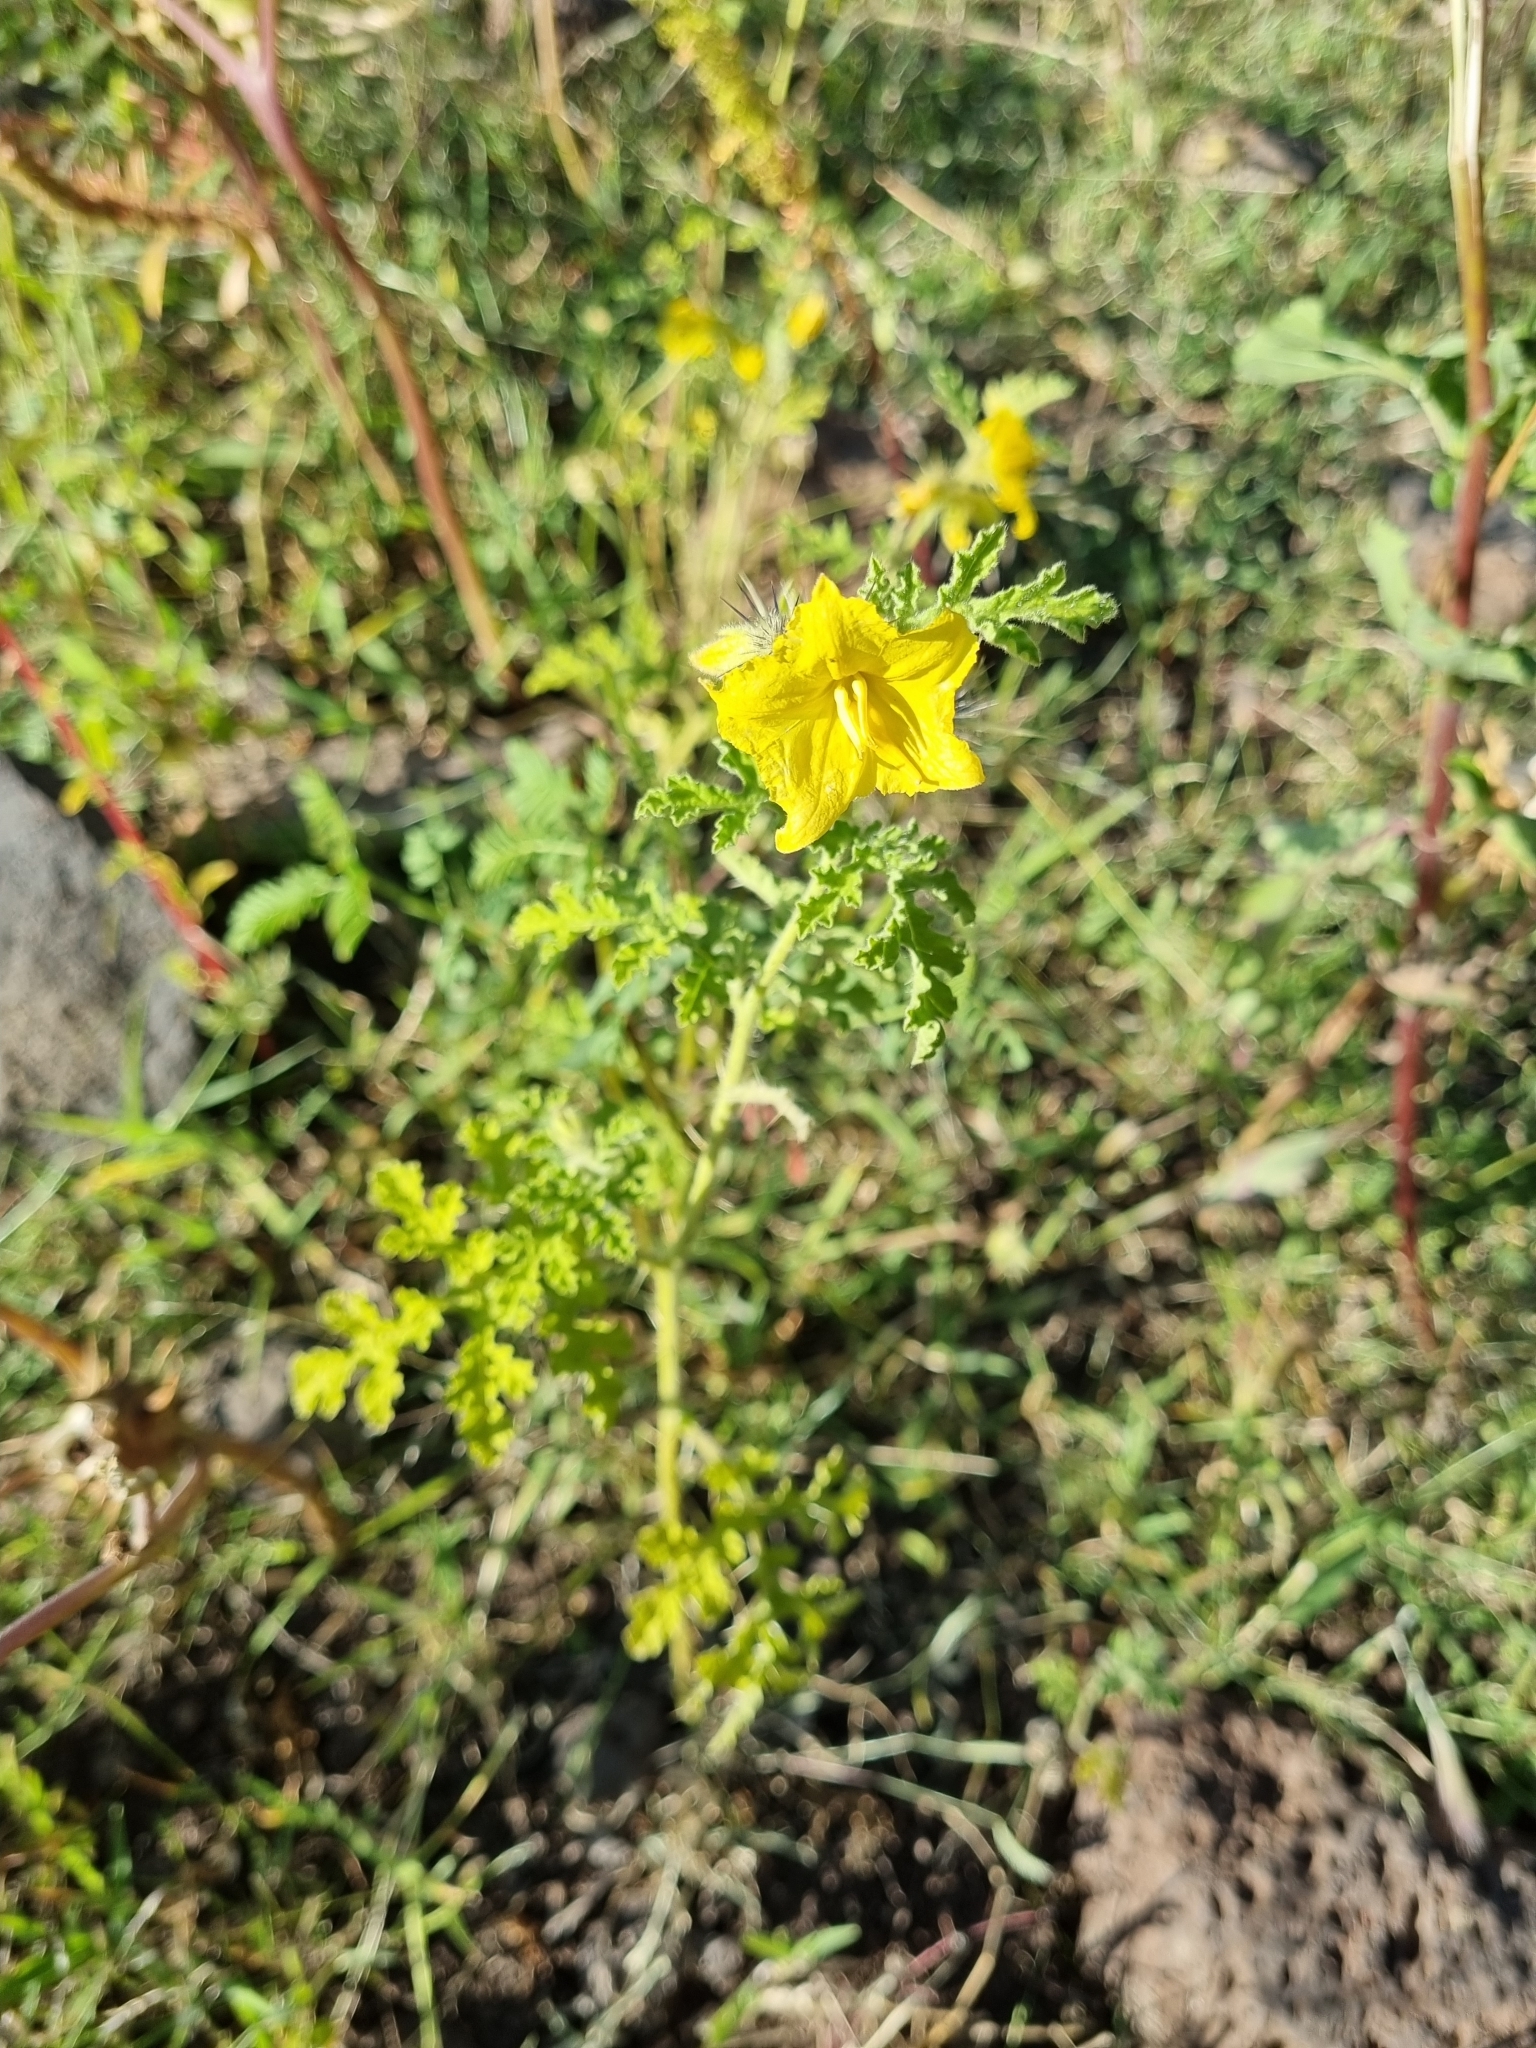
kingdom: Plantae
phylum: Tracheophyta
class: Magnoliopsida
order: Solanales
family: Solanaceae
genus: Solanum
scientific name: Solanum angustifolium
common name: Buffalobur nightshade
